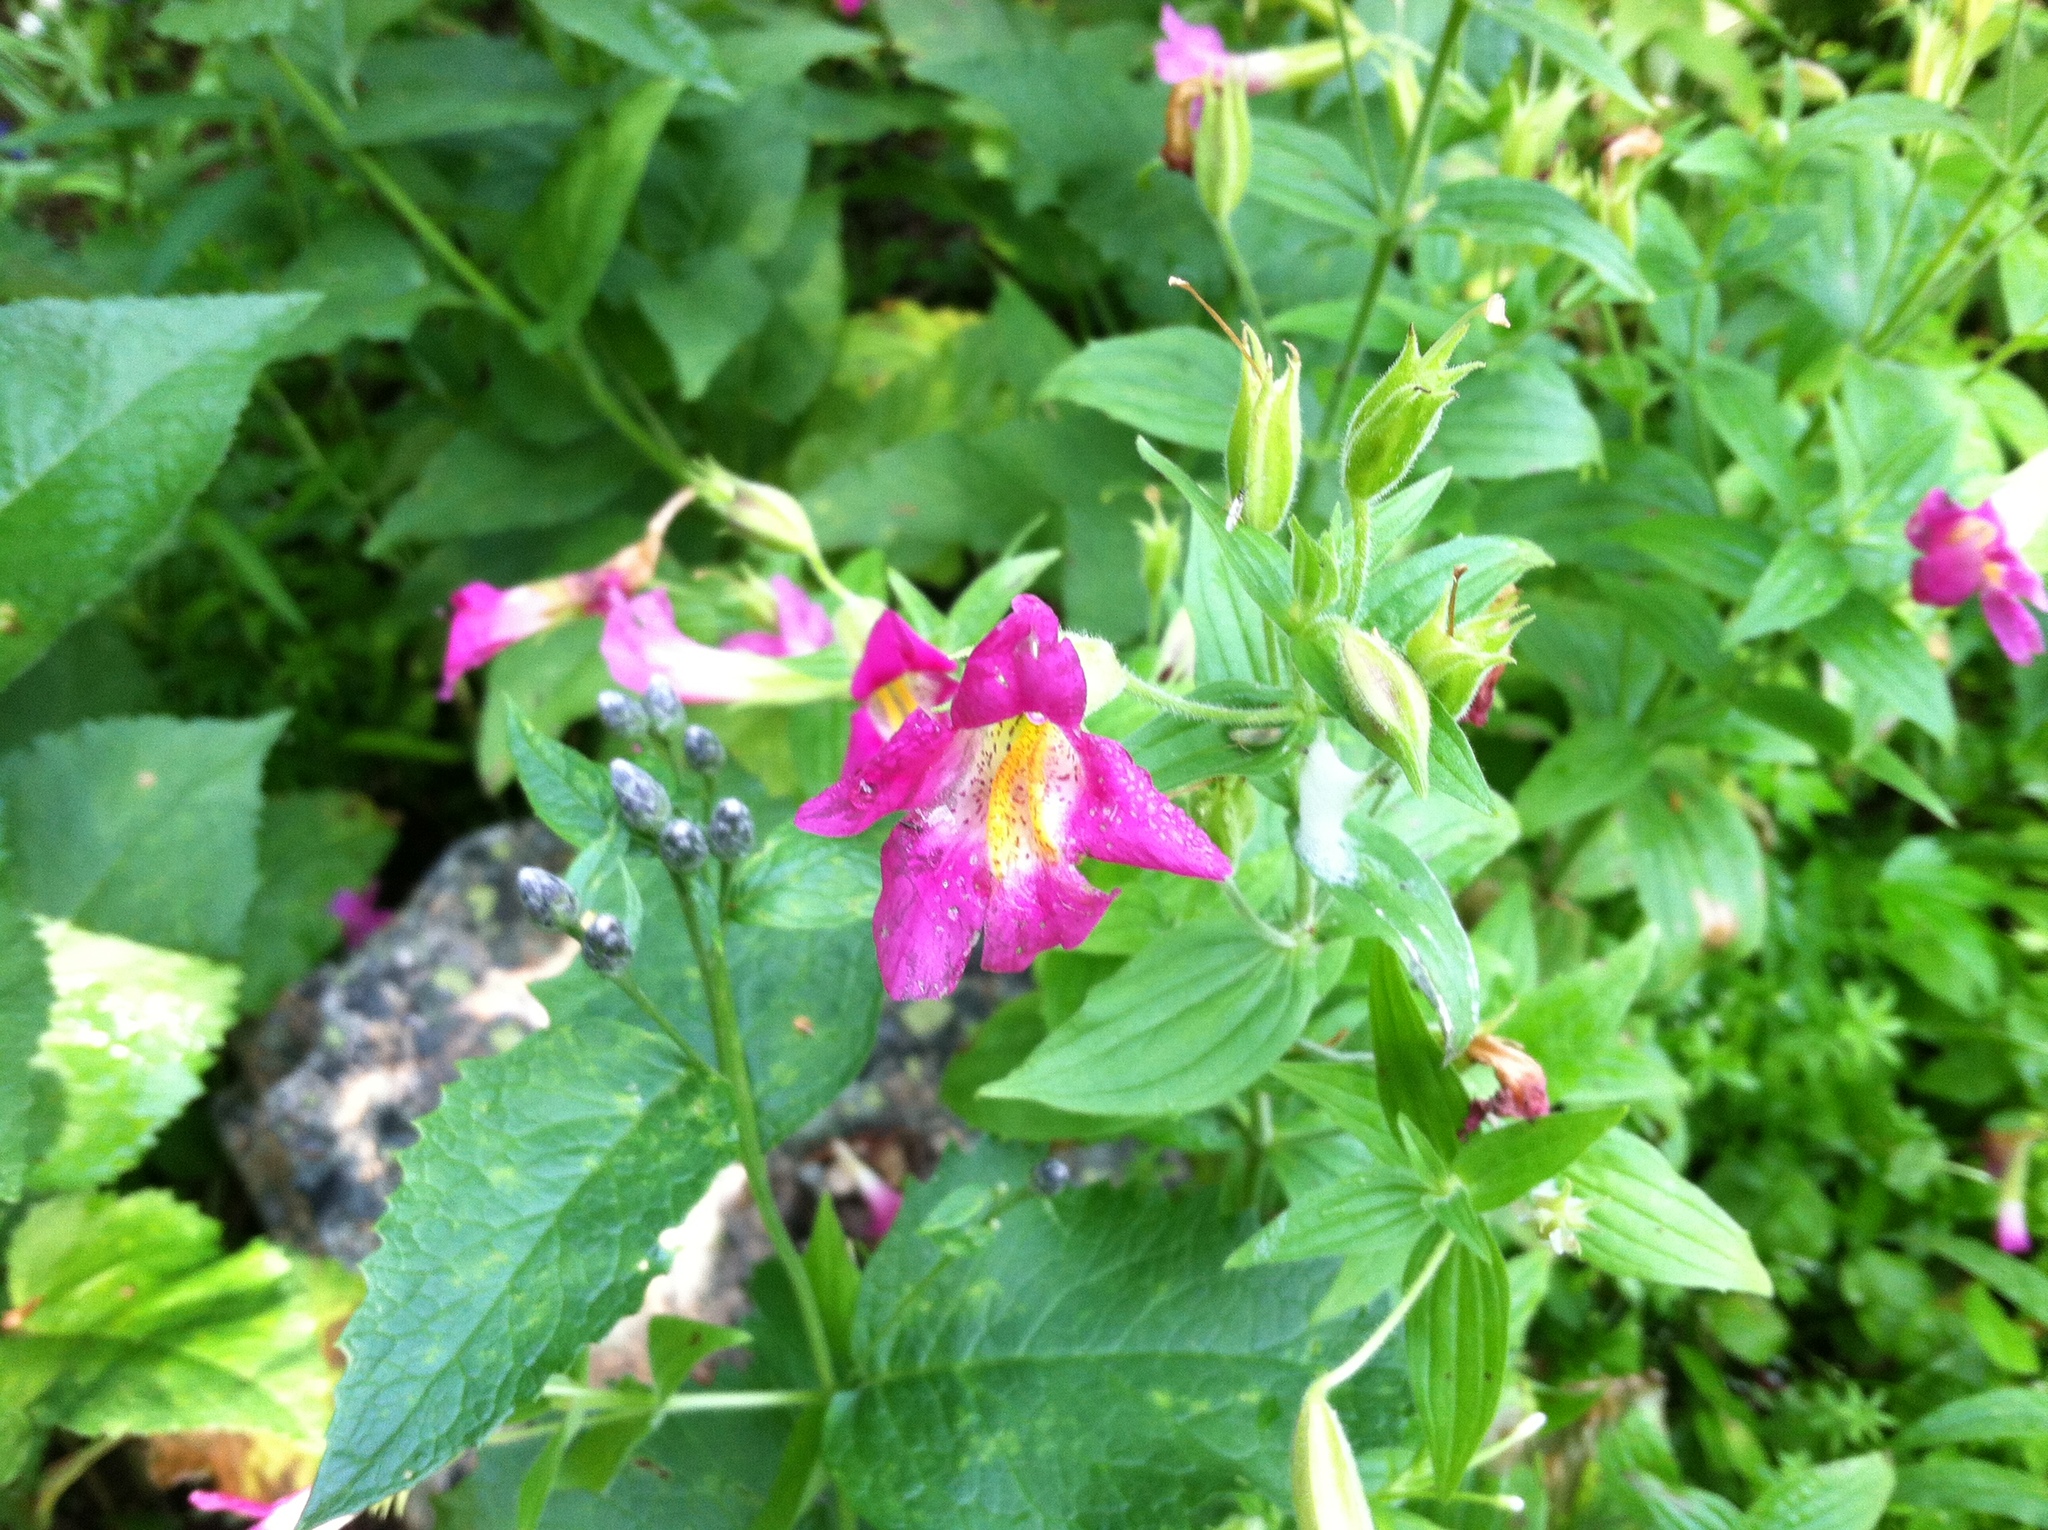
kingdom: Plantae
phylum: Tracheophyta
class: Magnoliopsida
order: Lamiales
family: Phrymaceae
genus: Erythranthe
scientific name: Erythranthe lewisii
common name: Lewis's monkey-flower
